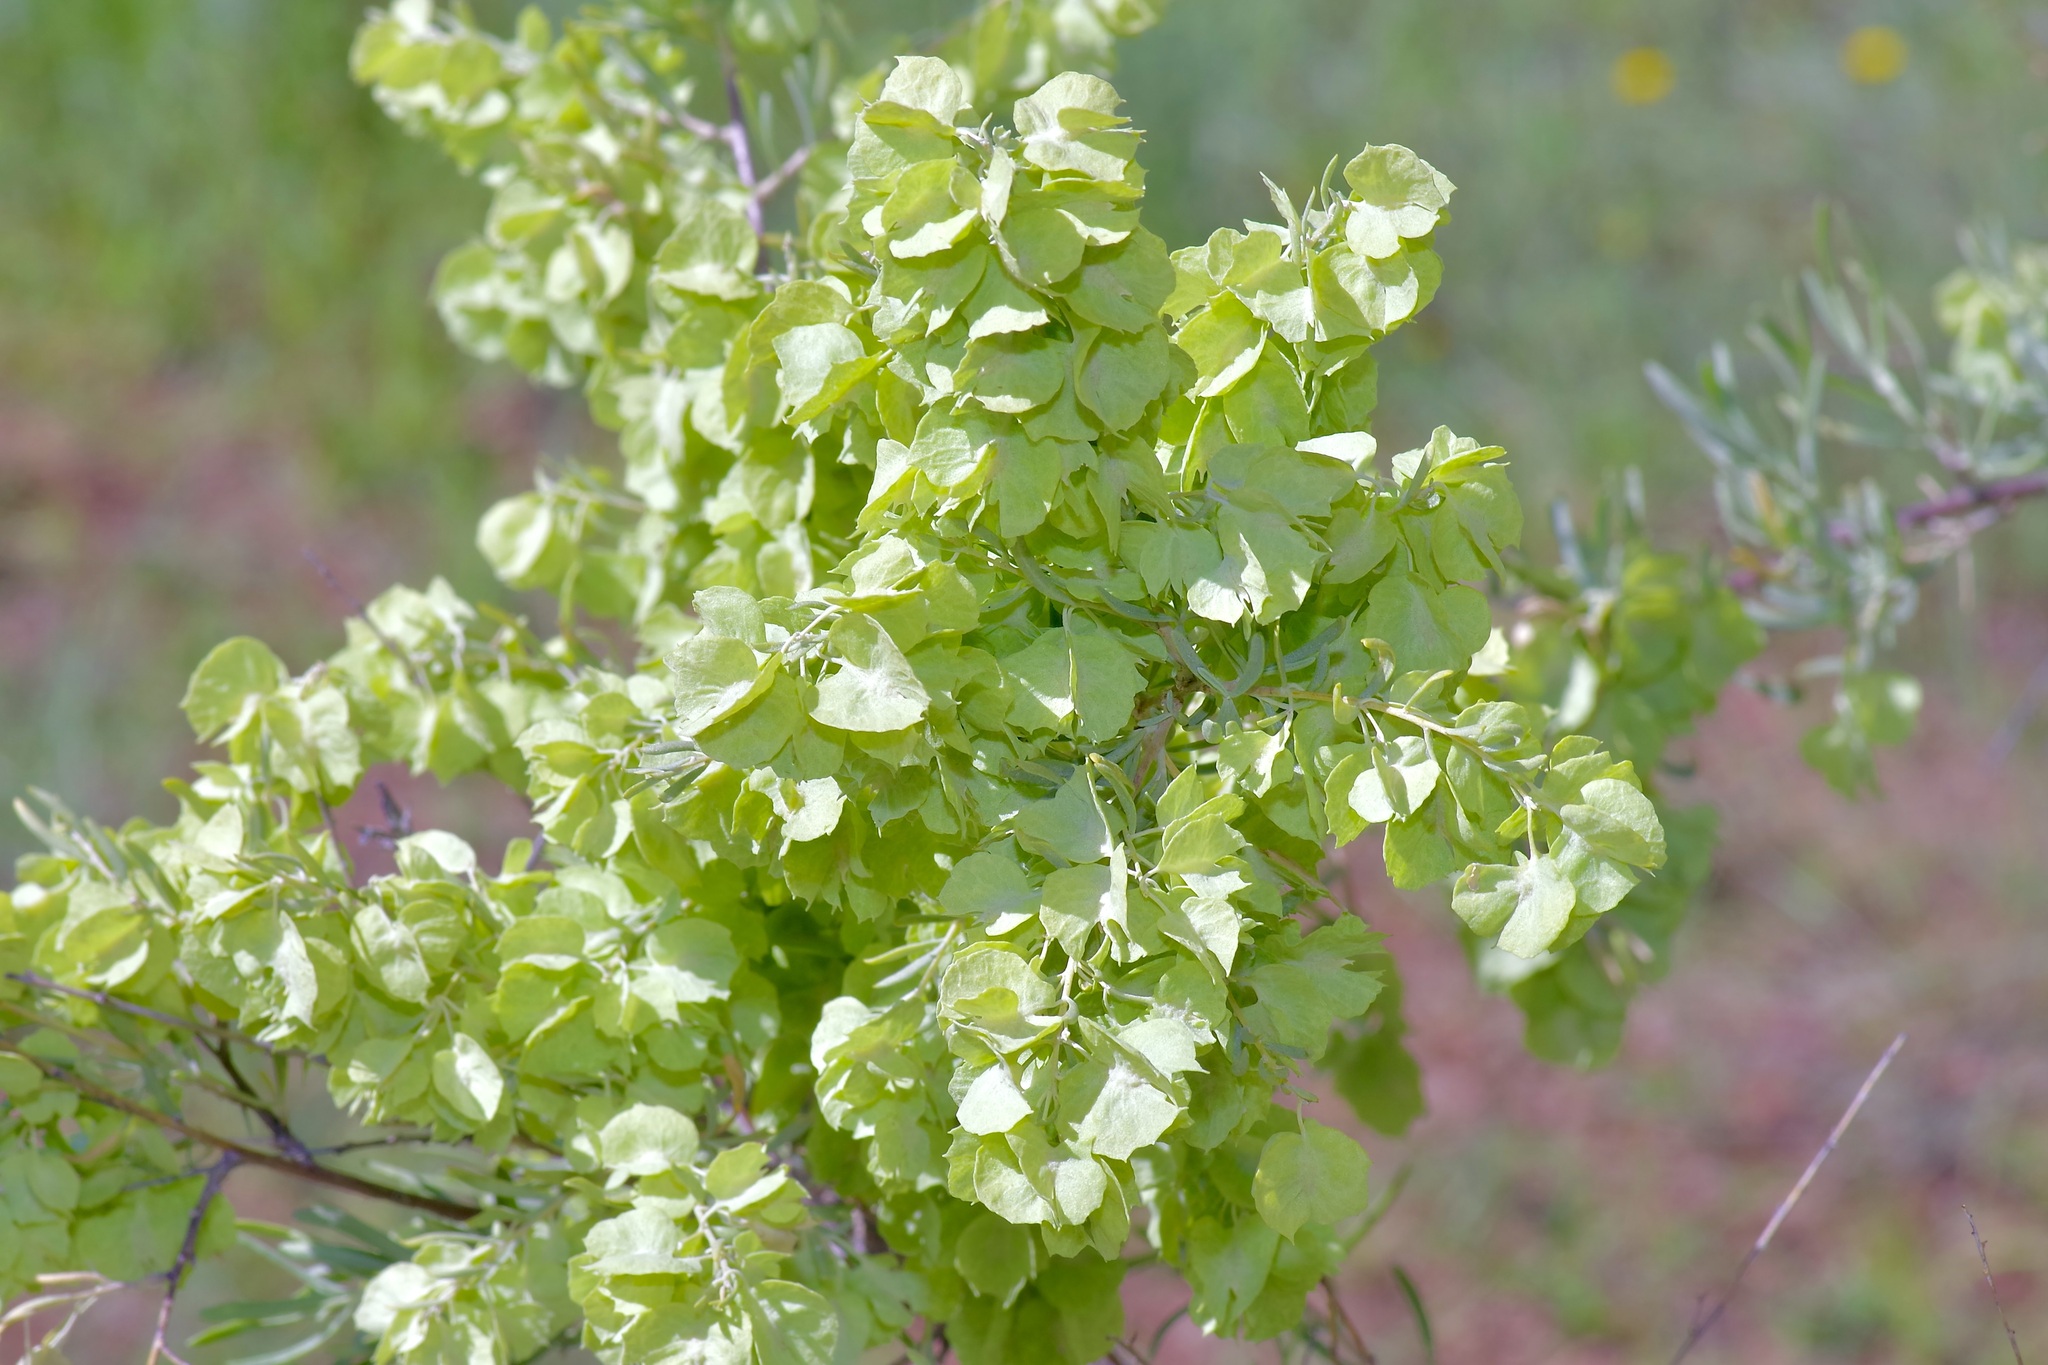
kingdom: Plantae
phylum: Tracheophyta
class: Magnoliopsida
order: Caryophyllales
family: Amaranthaceae
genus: Atriplex
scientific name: Atriplex canescens
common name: Four-wing saltbush
